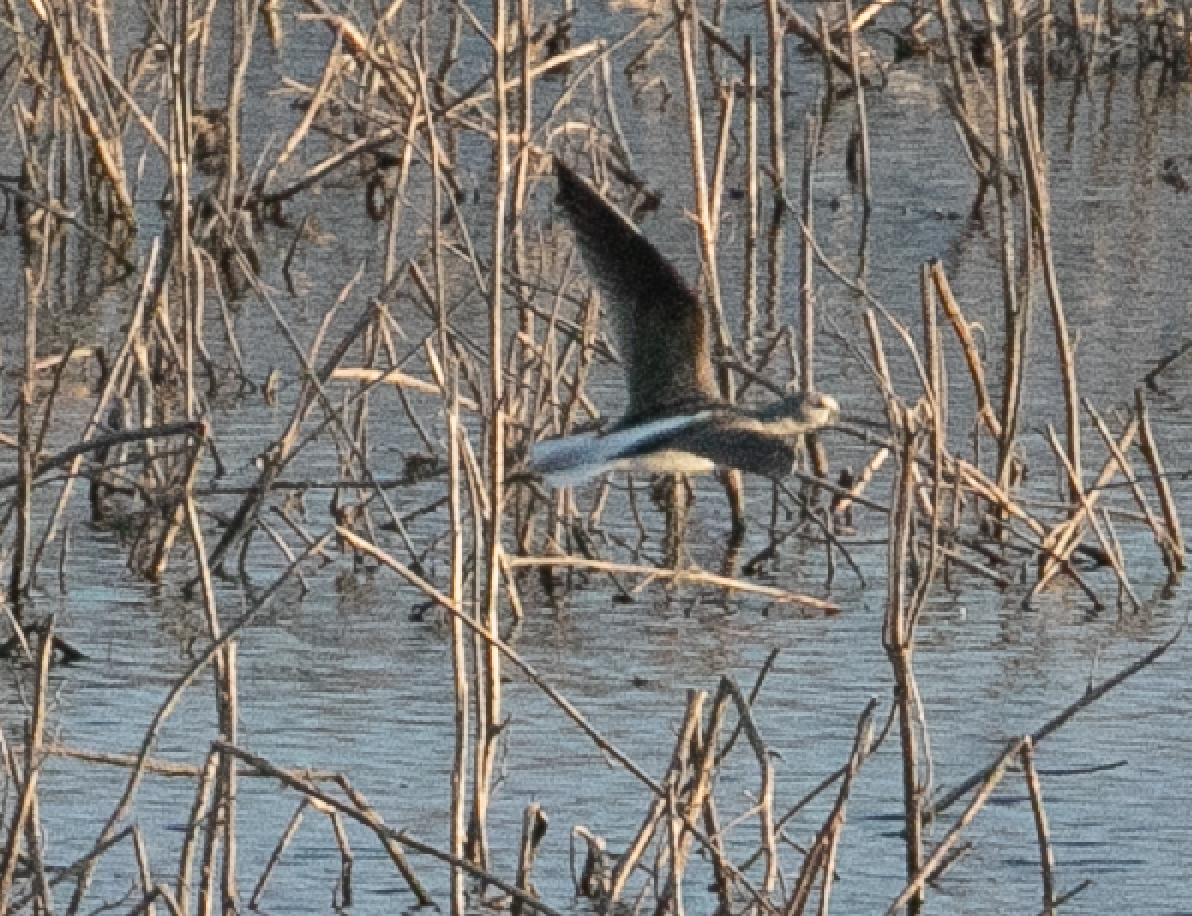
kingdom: Animalia
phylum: Chordata
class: Aves
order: Charadriiformes
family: Scolopacidae
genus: Tringa
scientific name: Tringa nebularia
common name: Common greenshank
